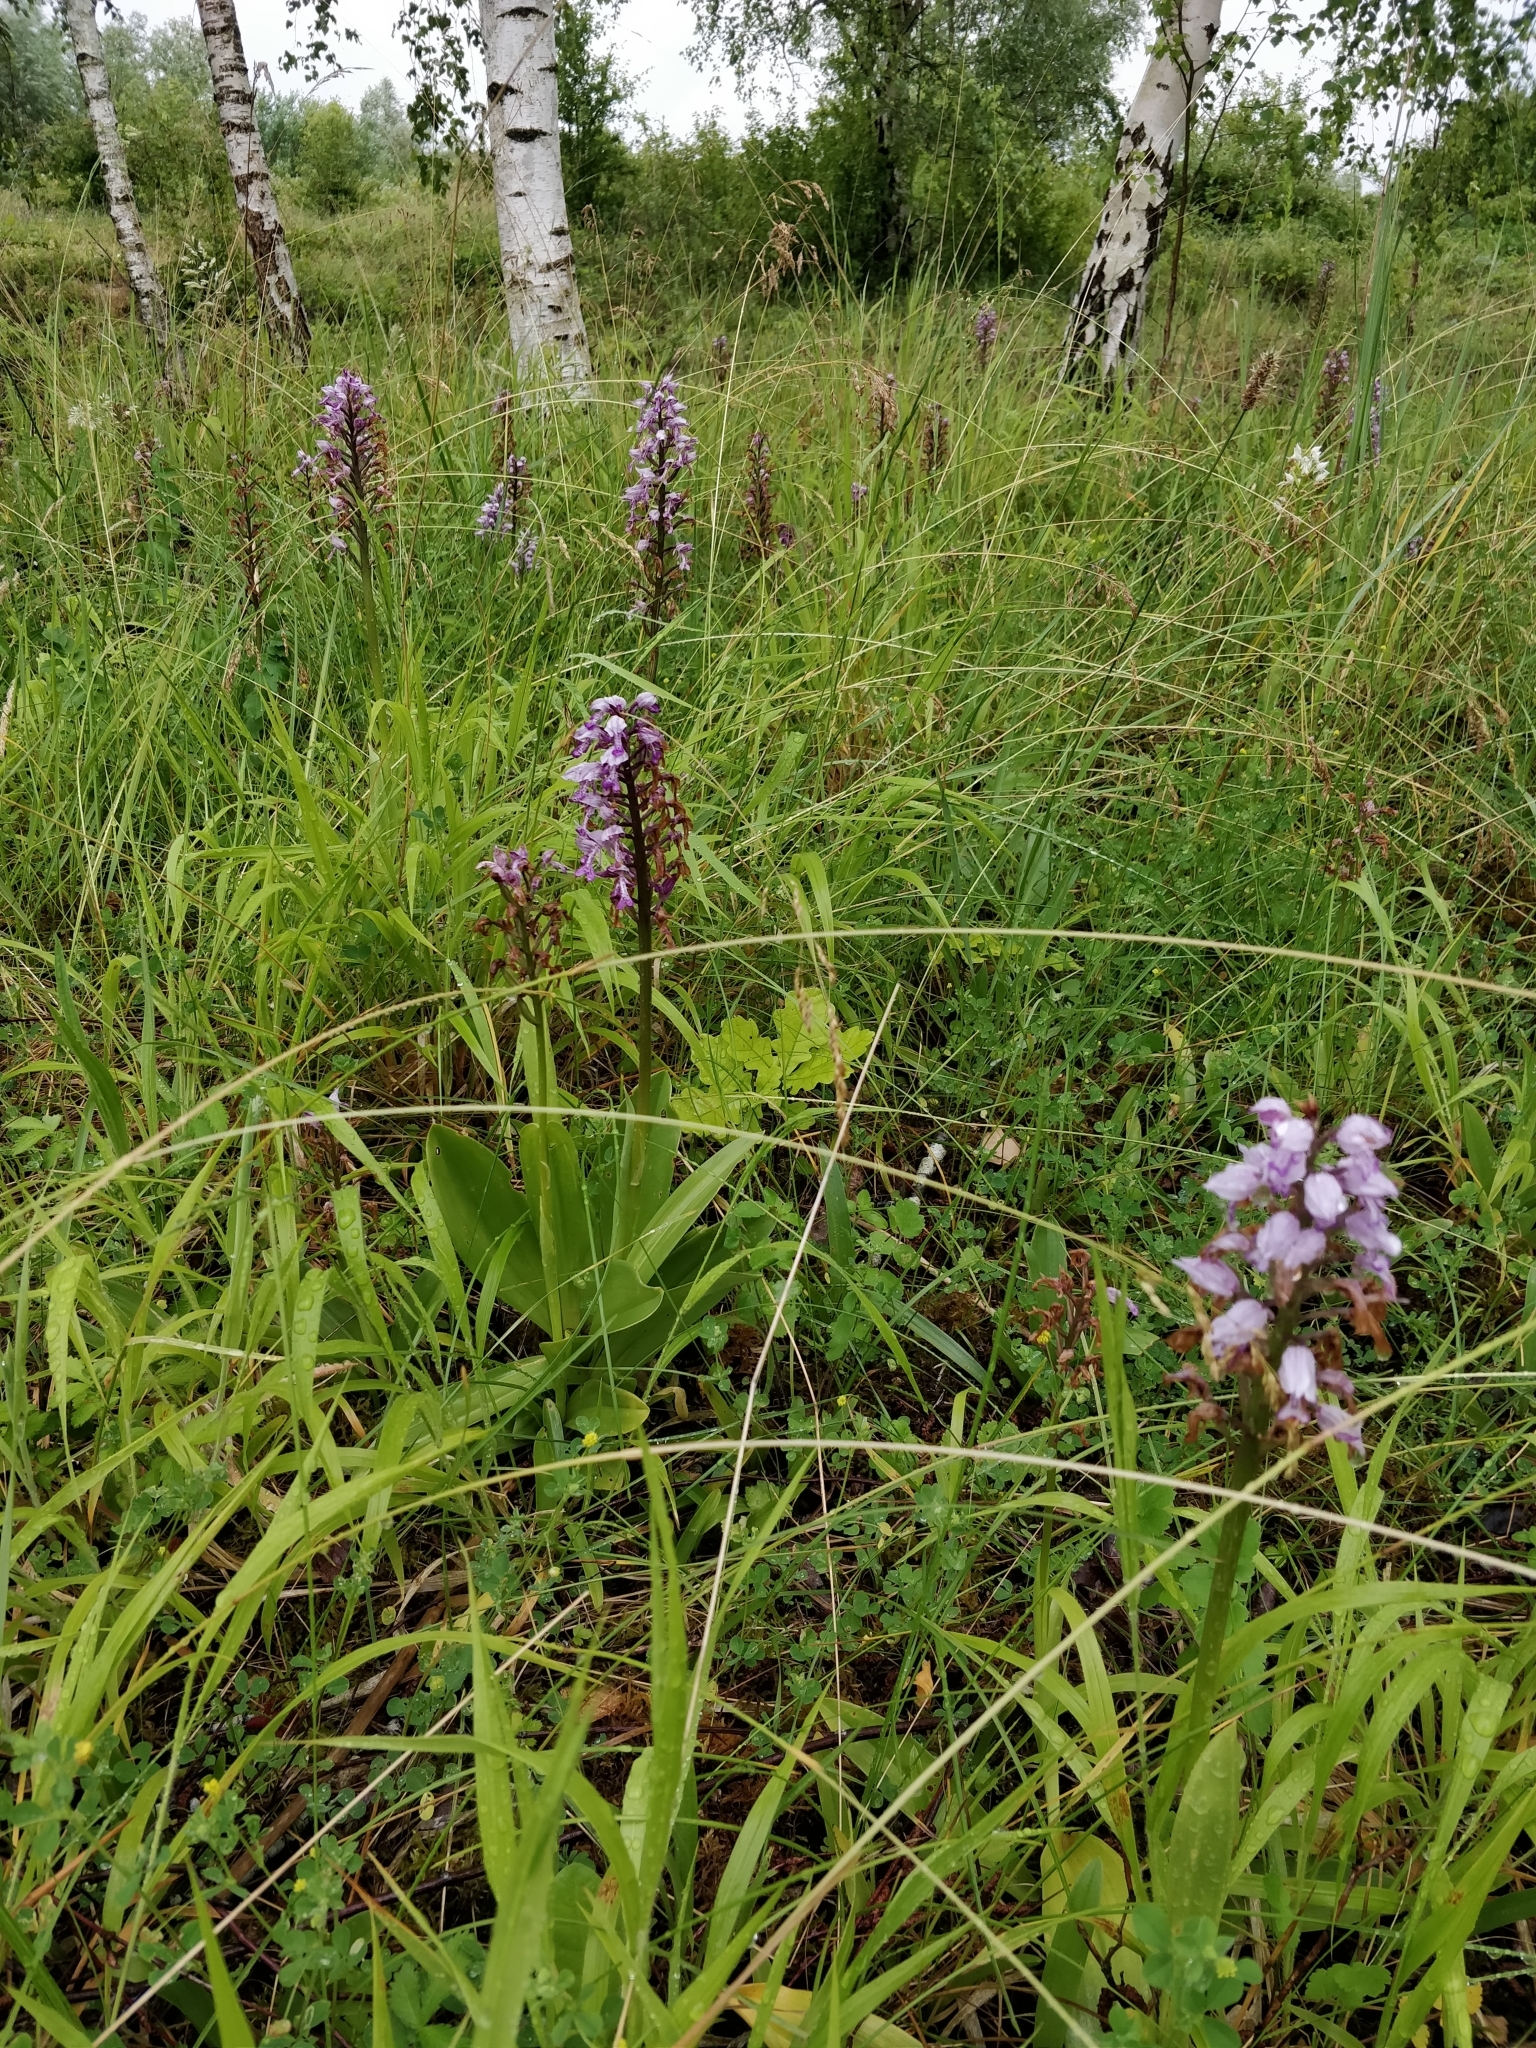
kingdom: Plantae
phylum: Tracheophyta
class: Liliopsida
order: Asparagales
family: Orchidaceae
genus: Orchis
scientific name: Orchis militaris
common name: Military orchid
